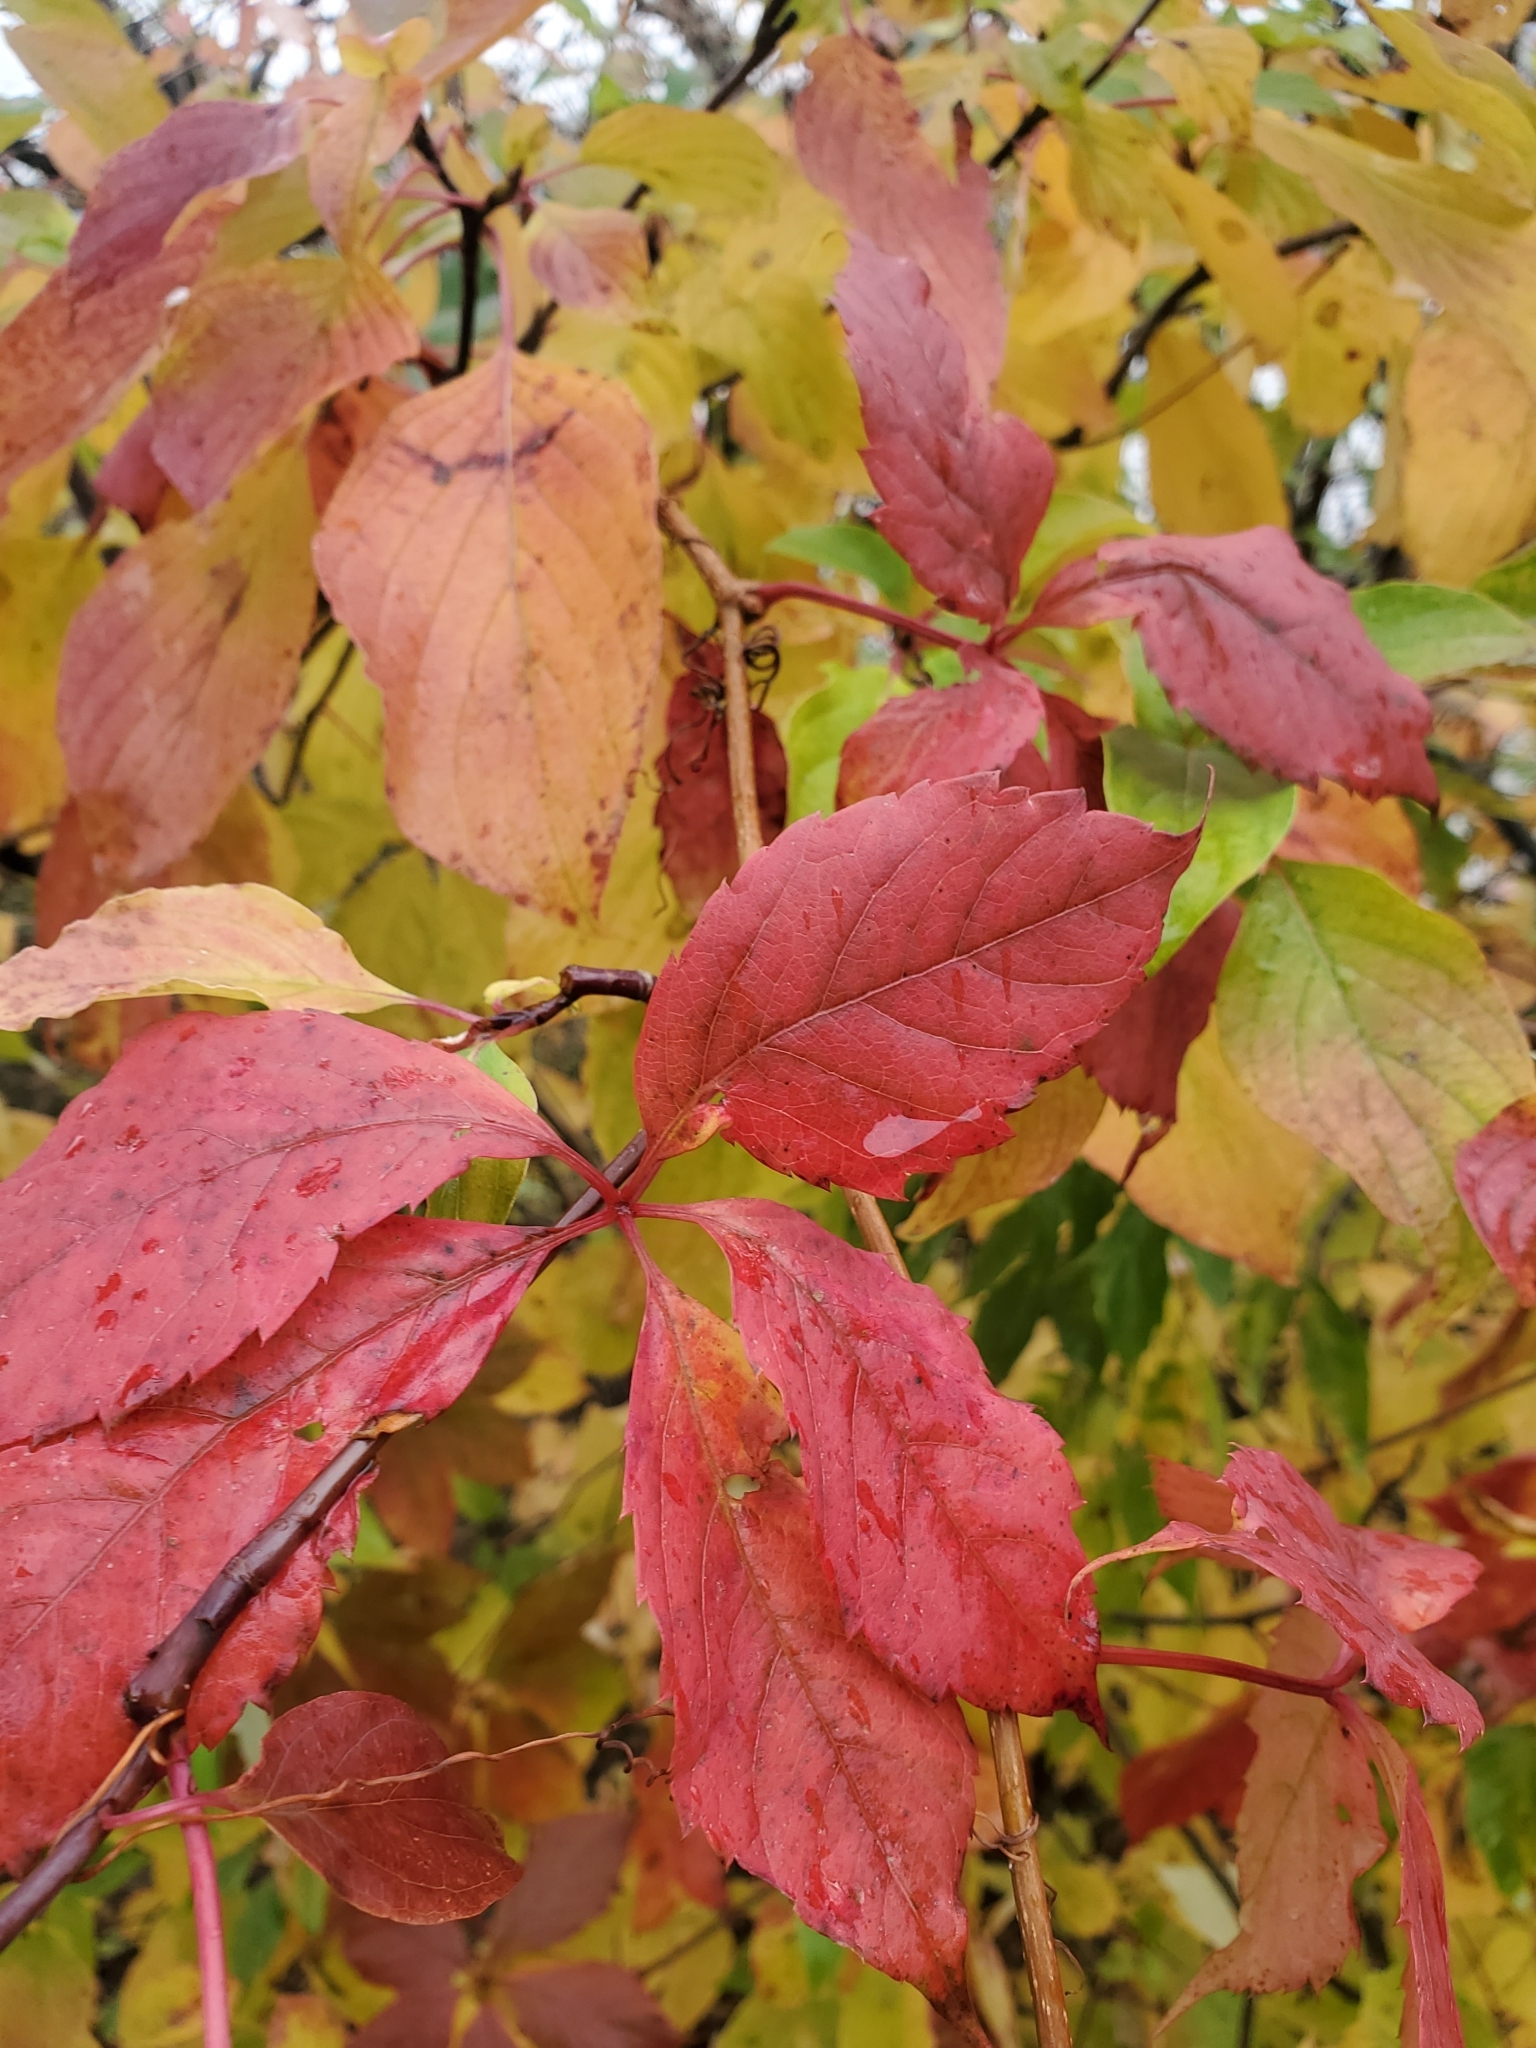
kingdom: Plantae
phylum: Tracheophyta
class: Magnoliopsida
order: Vitales
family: Vitaceae
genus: Parthenocissus
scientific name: Parthenocissus inserta
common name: False virginia-creeper
